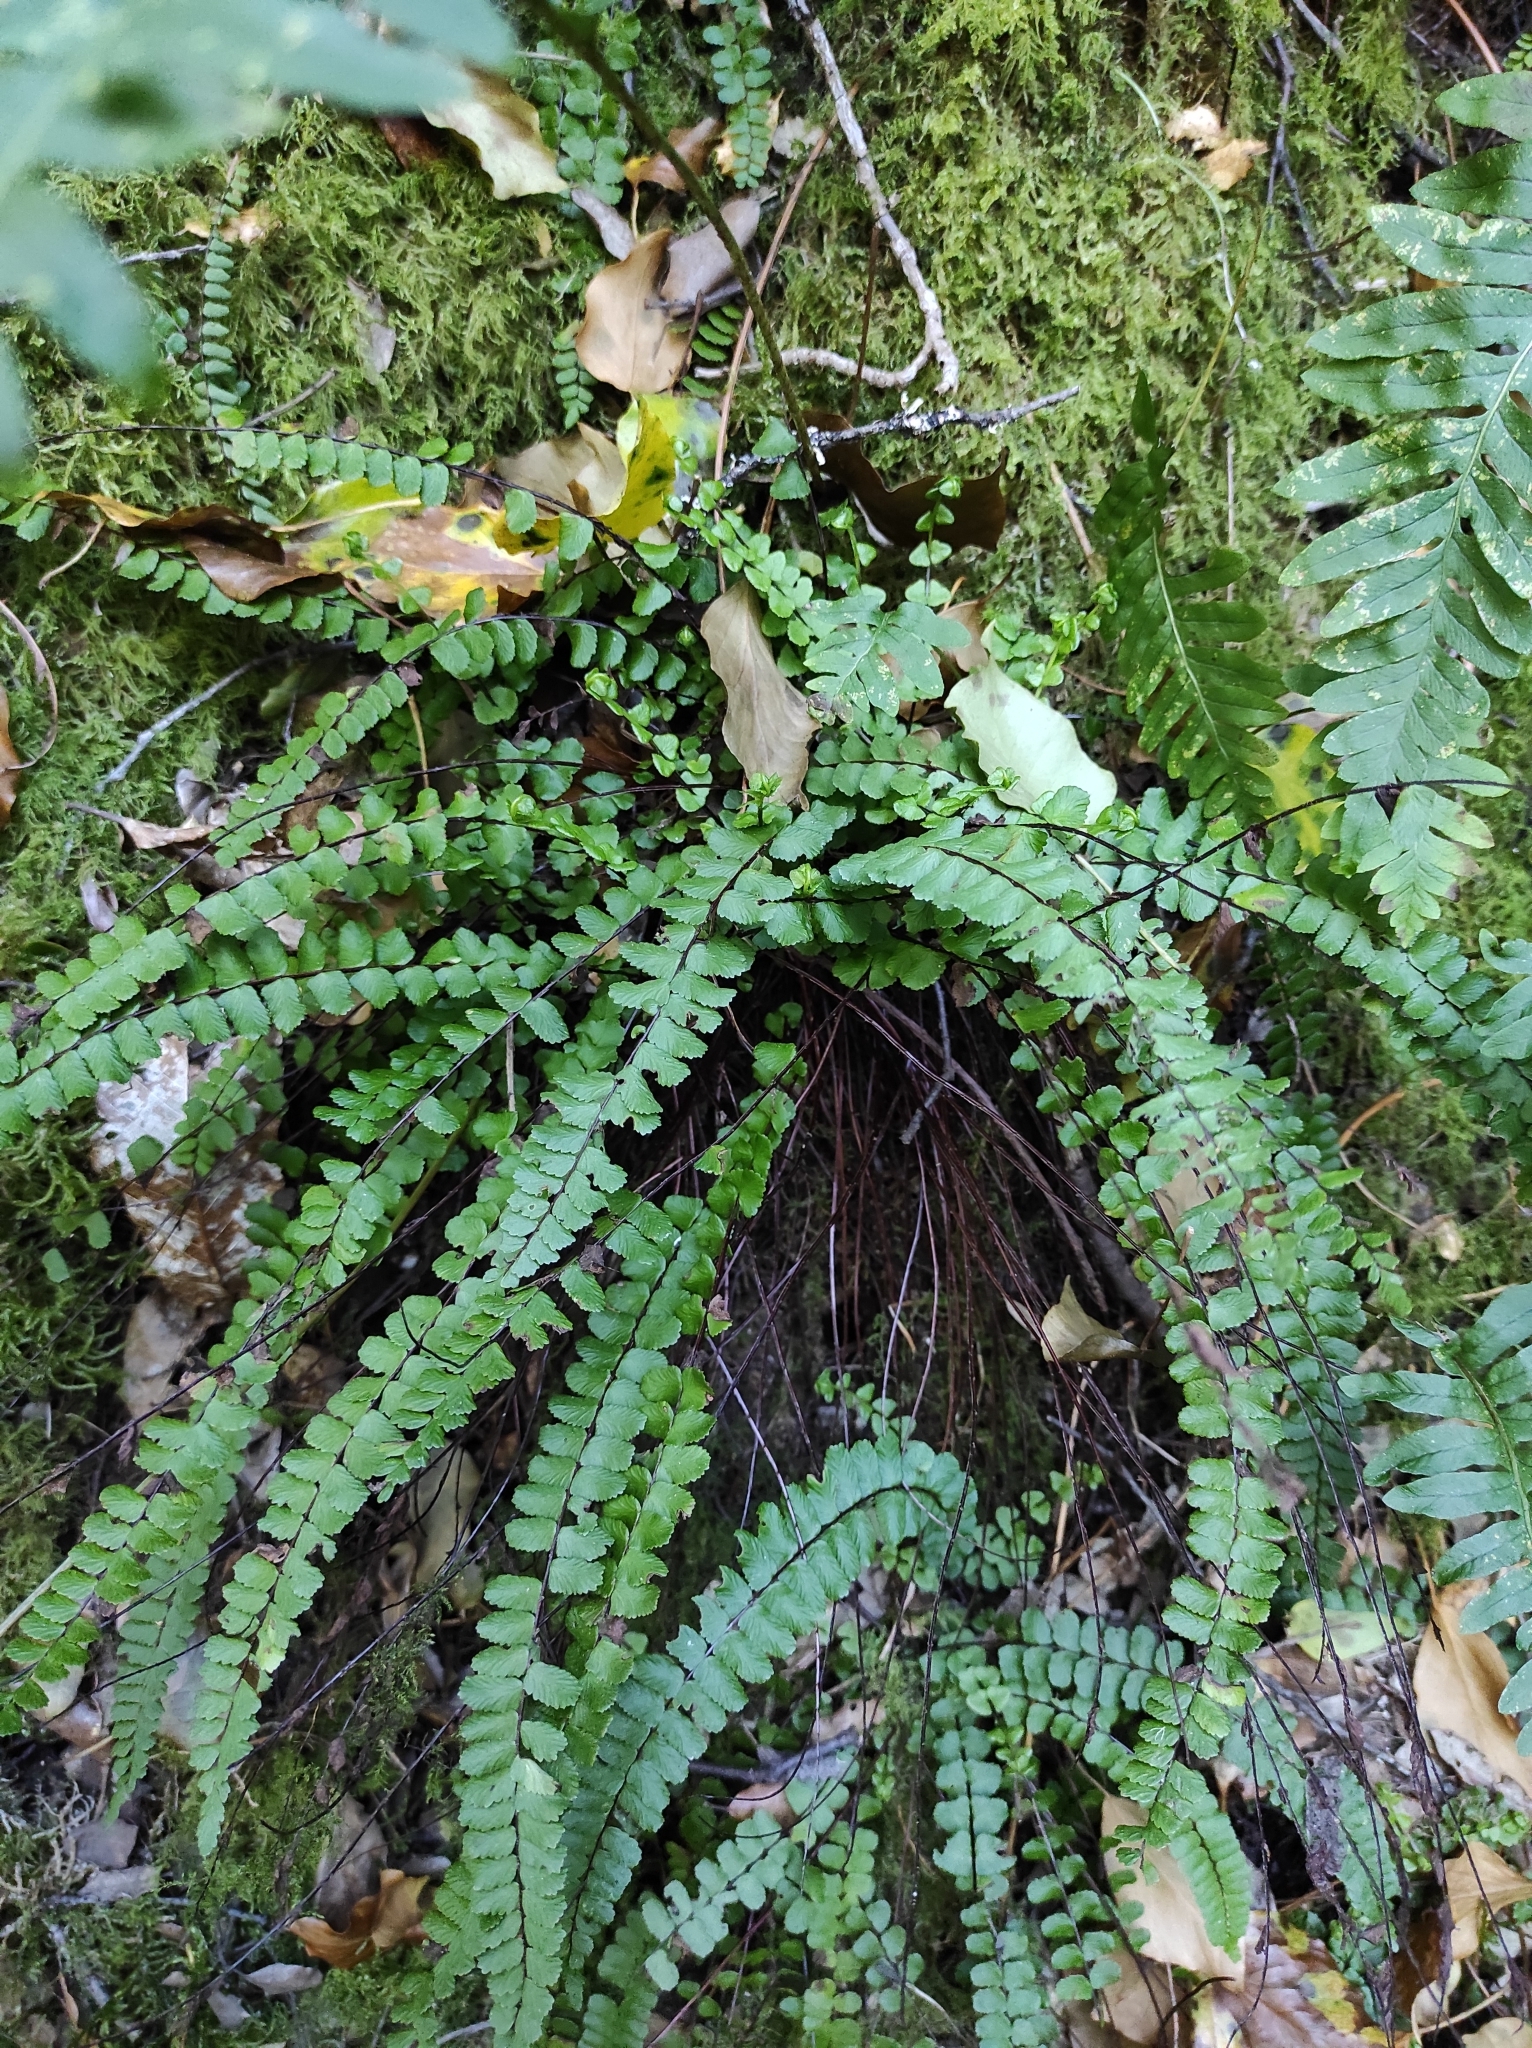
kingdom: Plantae
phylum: Tracheophyta
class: Polypodiopsida
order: Polypodiales
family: Aspleniaceae
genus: Asplenium
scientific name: Asplenium trichomanes
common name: Maidenhair spleenwort
